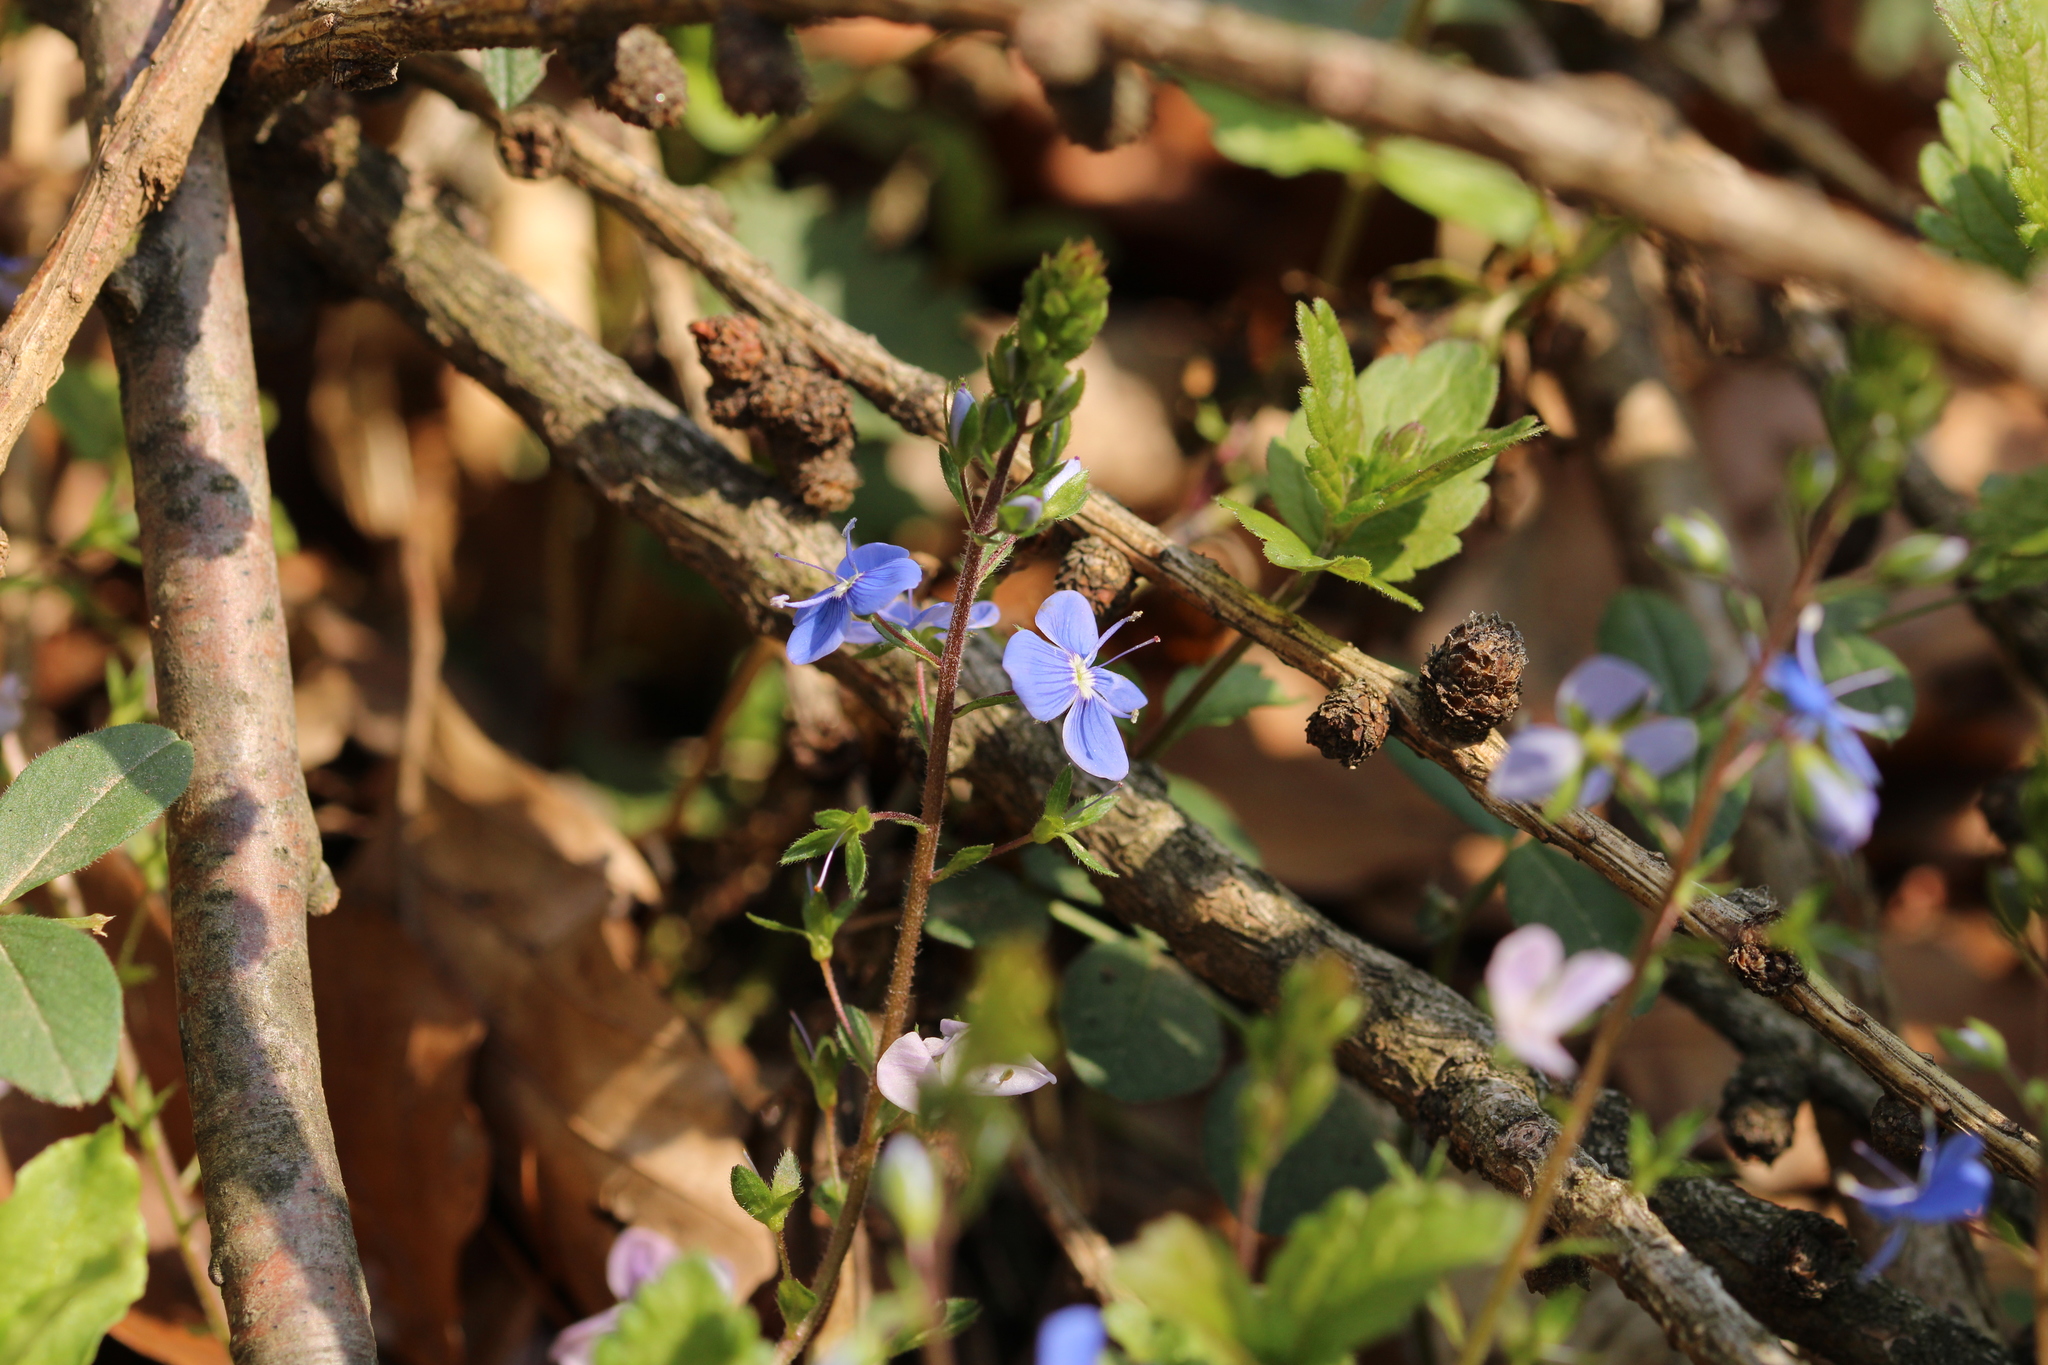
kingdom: Plantae
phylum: Tracheophyta
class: Magnoliopsida
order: Lamiales
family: Plantaginaceae
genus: Veronica
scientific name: Veronica chamaedrys
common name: Germander speedwell
